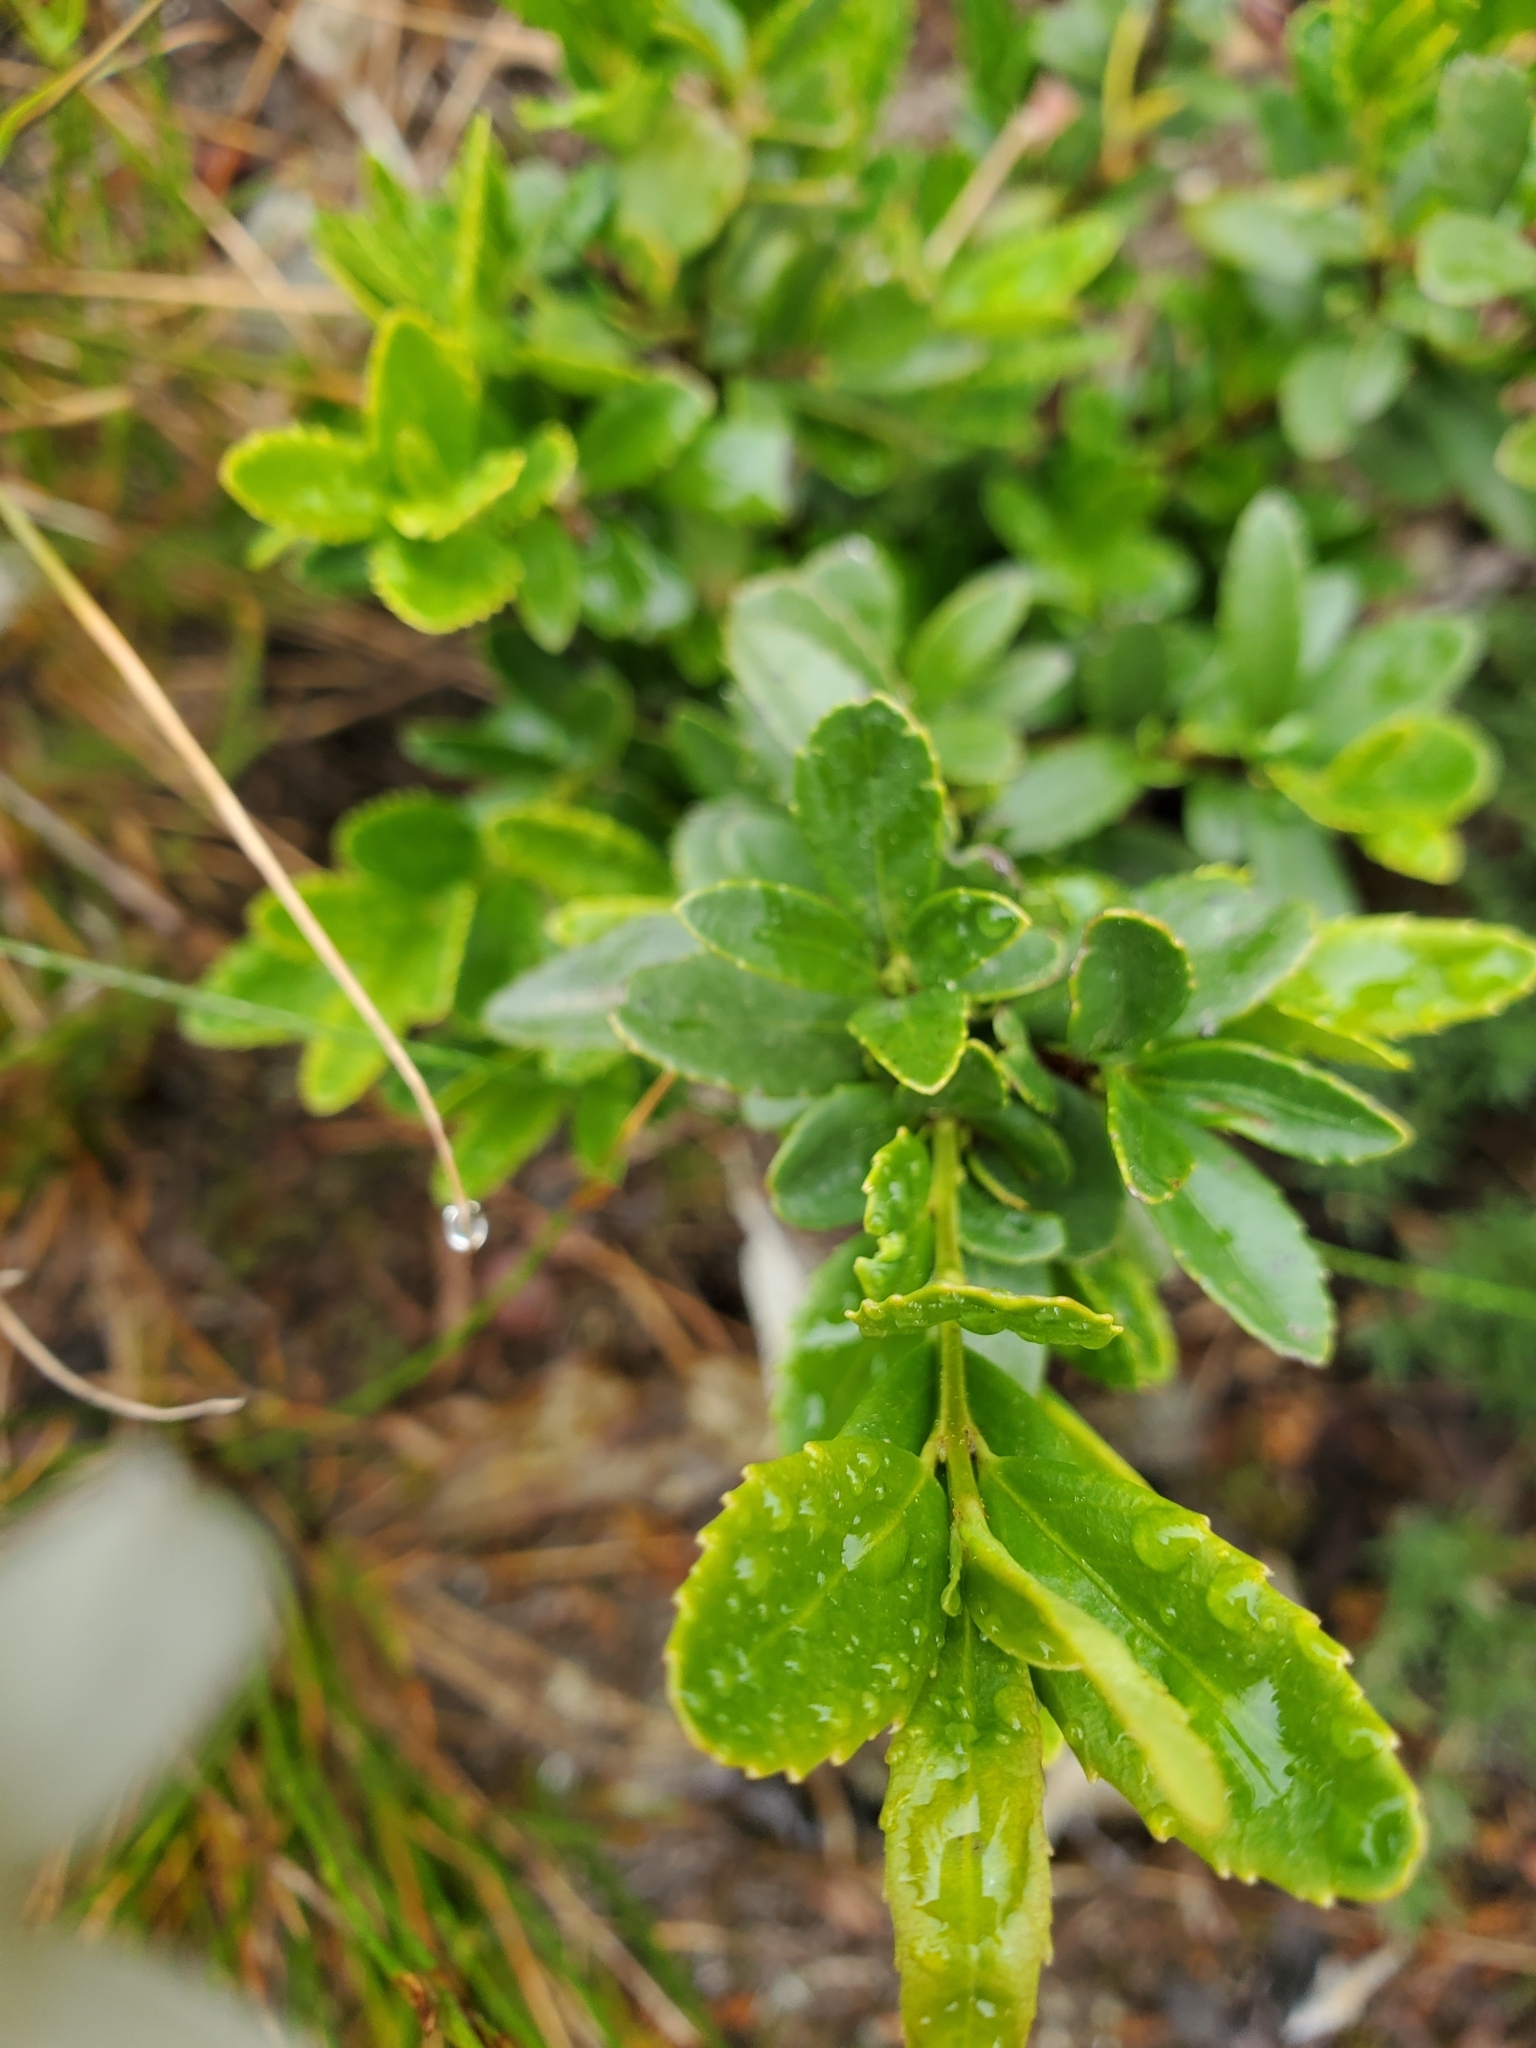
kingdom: Plantae
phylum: Tracheophyta
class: Magnoliopsida
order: Celastrales
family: Celastraceae
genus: Paxistima
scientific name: Paxistima myrsinites
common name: Mountain-lover
